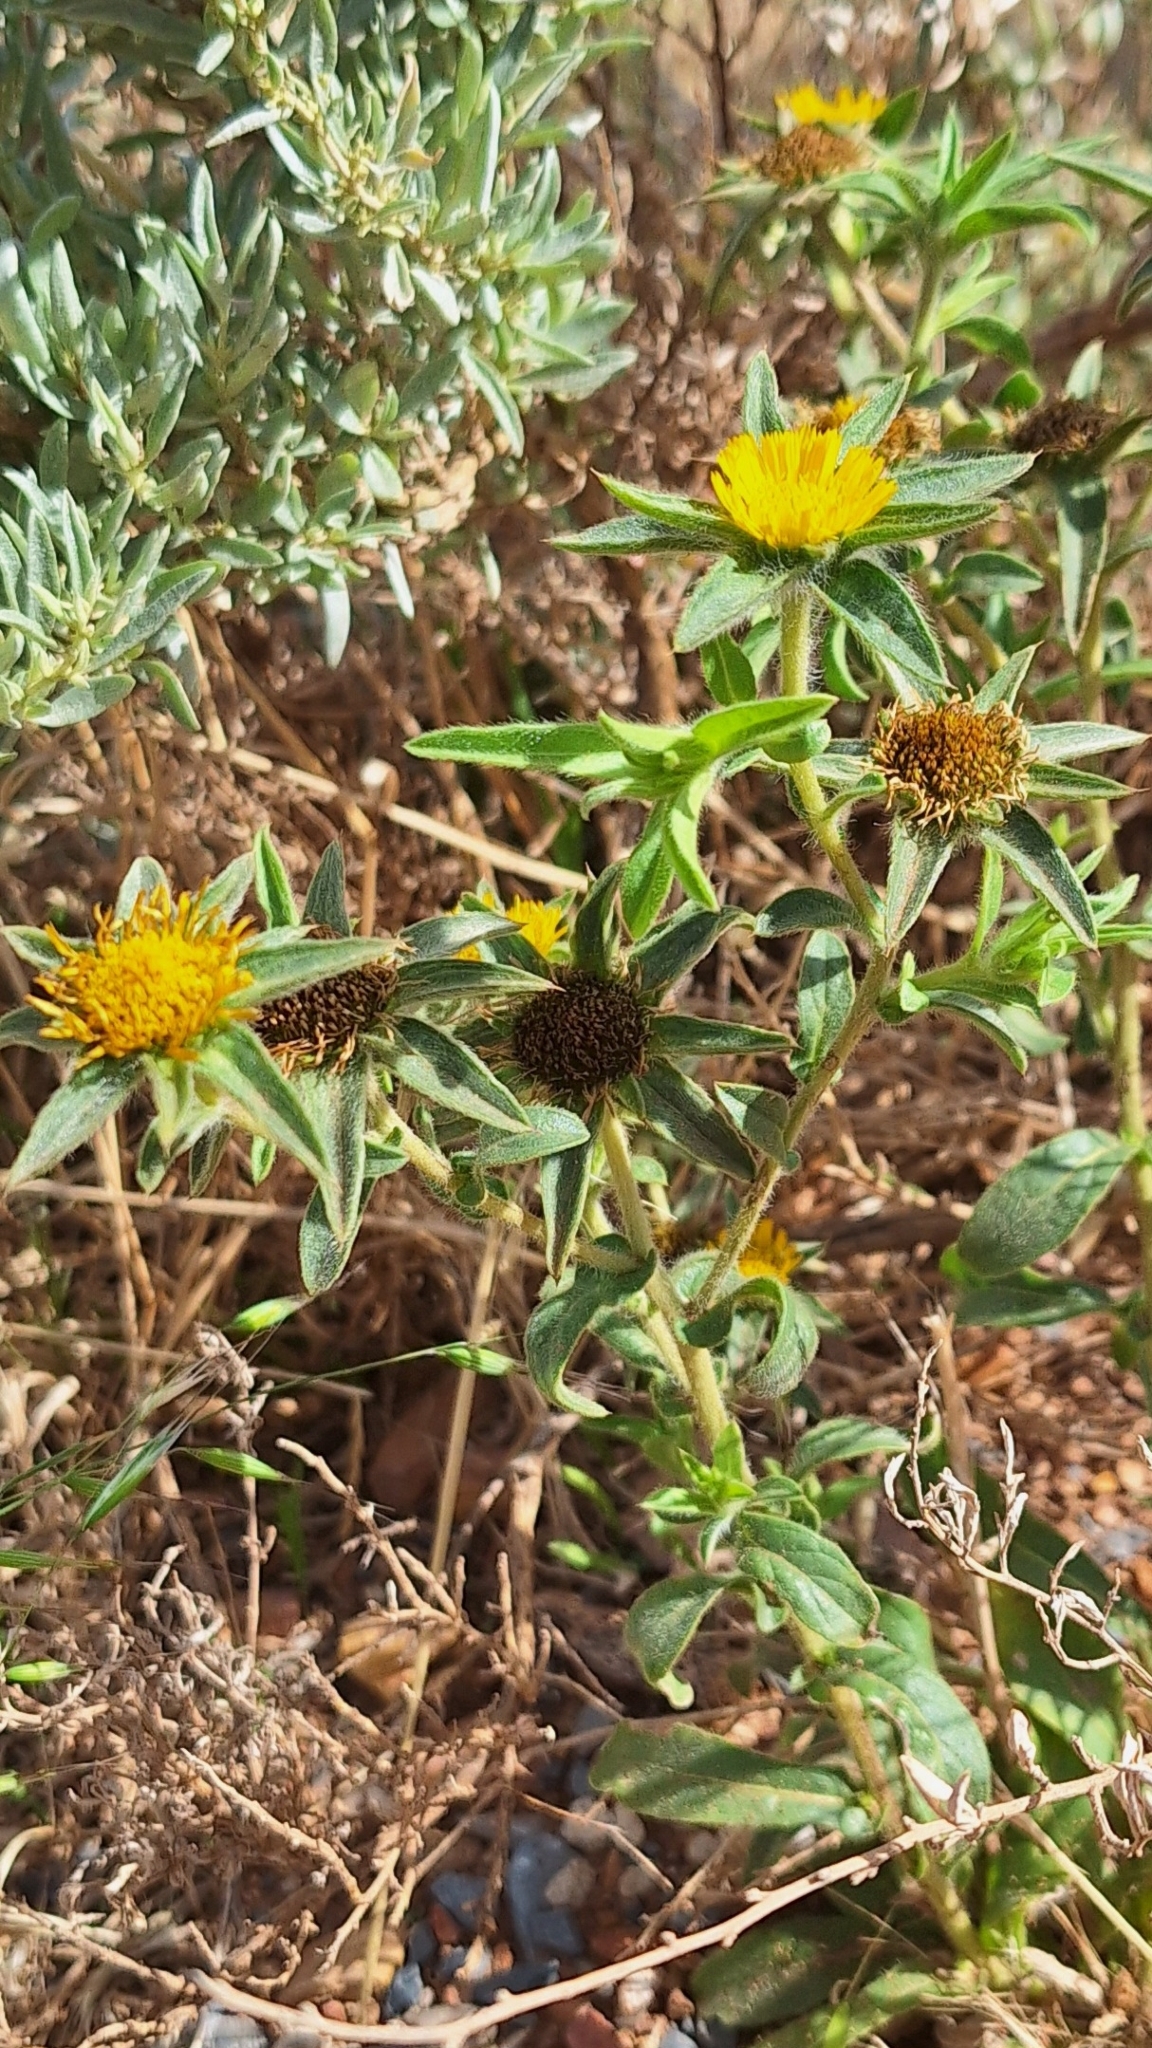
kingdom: Plantae
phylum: Tracheophyta
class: Magnoliopsida
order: Asterales
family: Asteraceae
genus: Pallenis
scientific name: Pallenis spinosa
